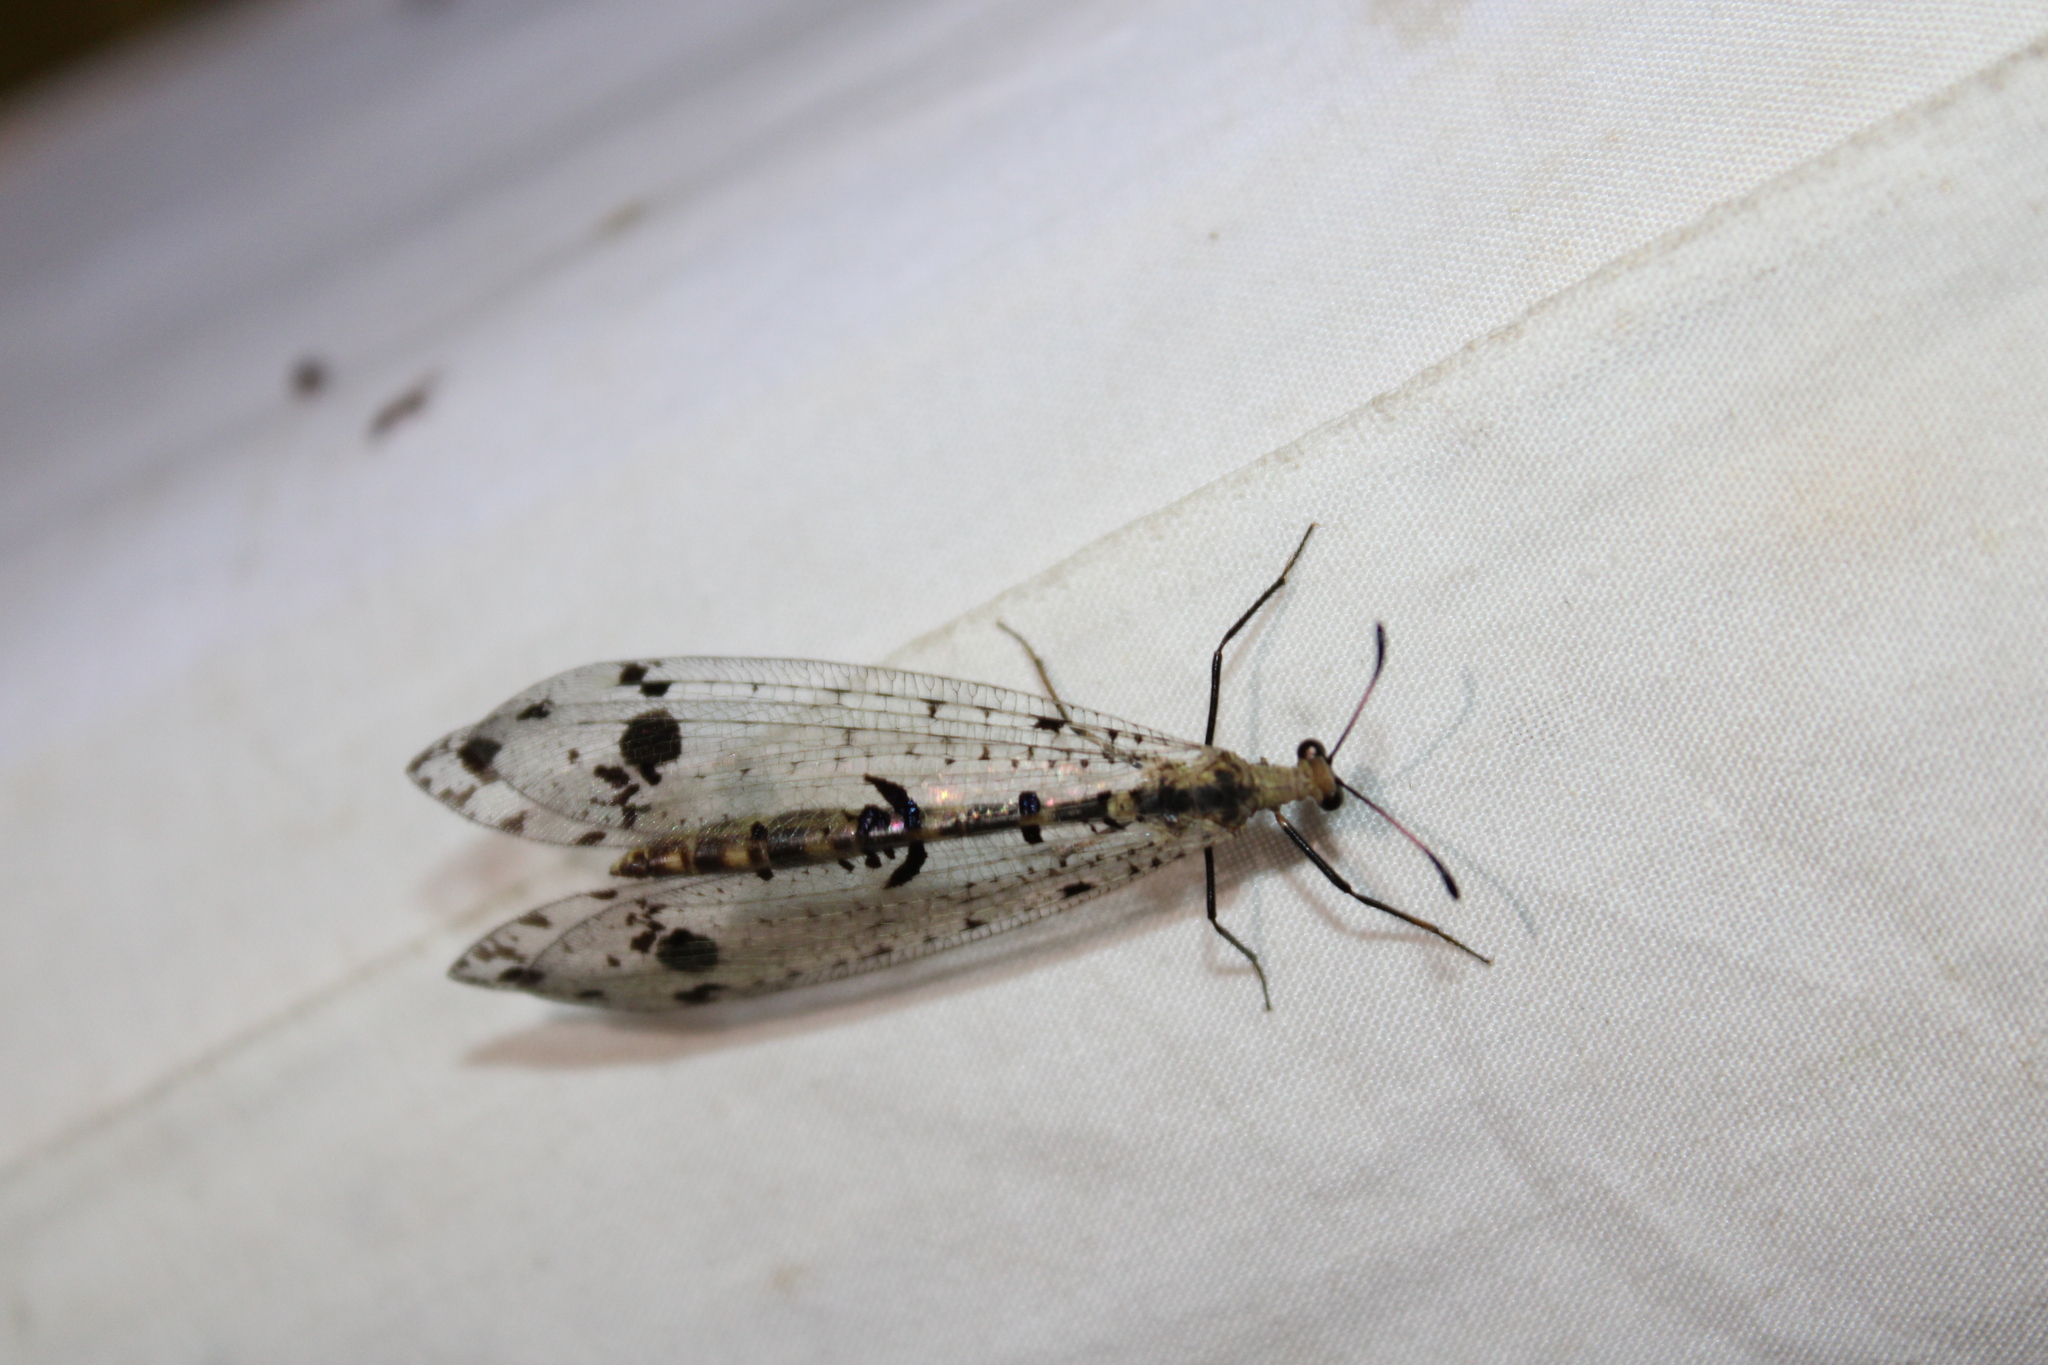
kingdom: Animalia
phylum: Arthropoda
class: Insecta
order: Neuroptera
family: Myrmeleontidae
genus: Dendroleon
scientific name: Dendroleon obsoletus
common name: Eastern spotted-winged antlion
